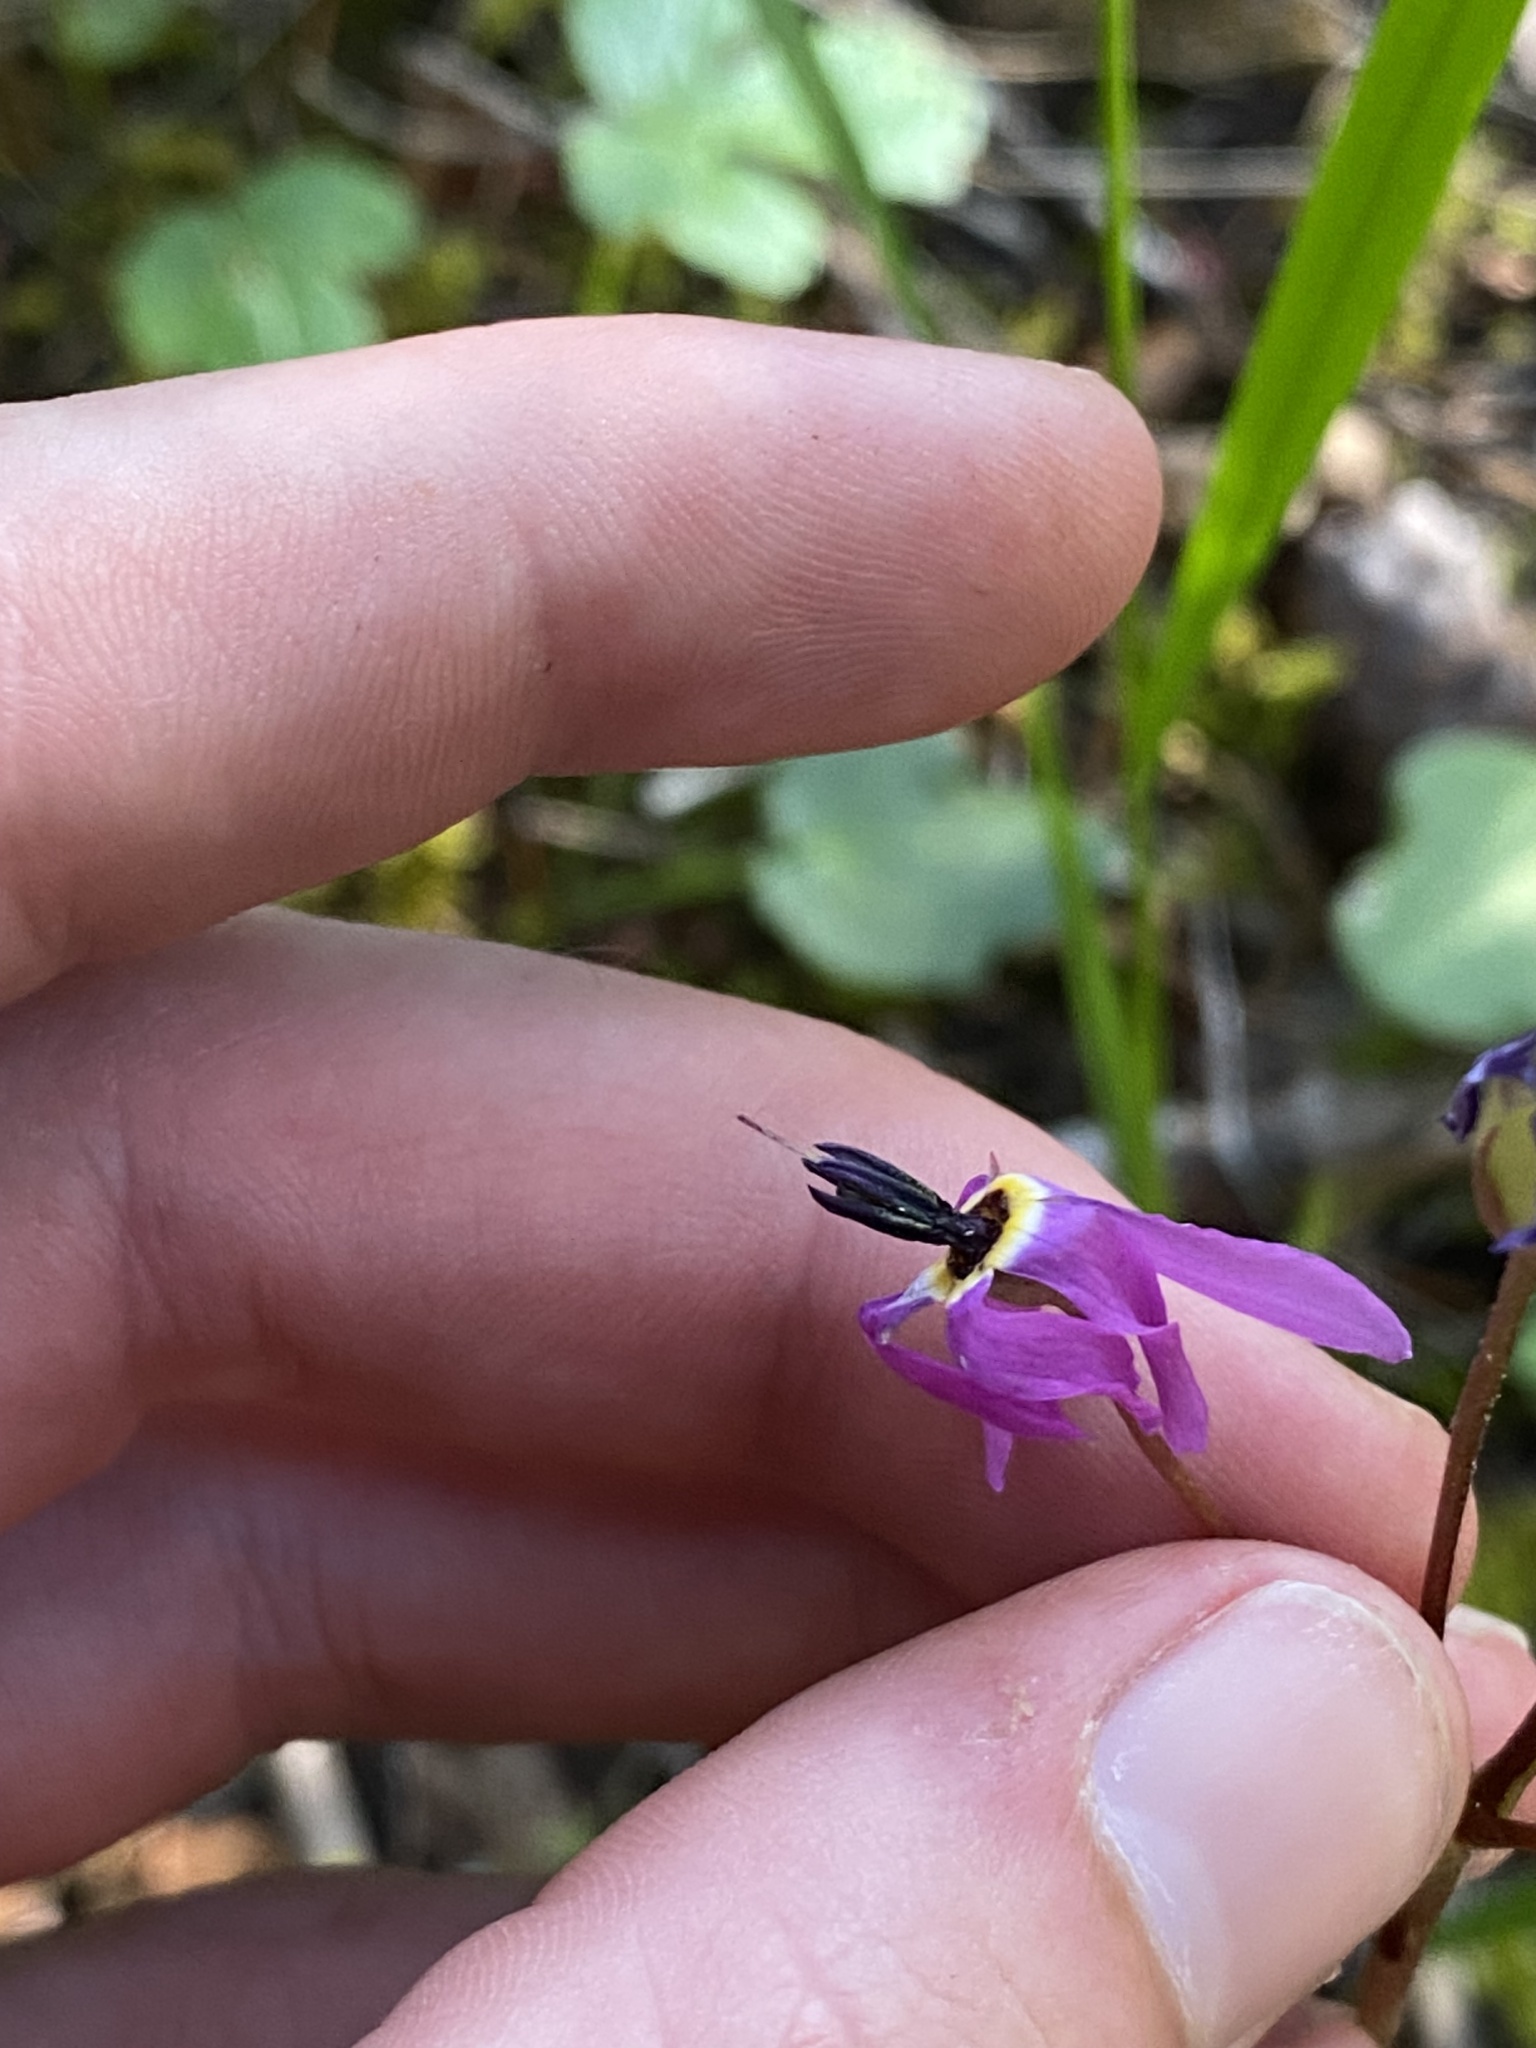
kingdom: Plantae
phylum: Tracheophyta
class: Magnoliopsida
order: Ericales
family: Primulaceae
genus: Dodecatheon
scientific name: Dodecatheon hendersonii
